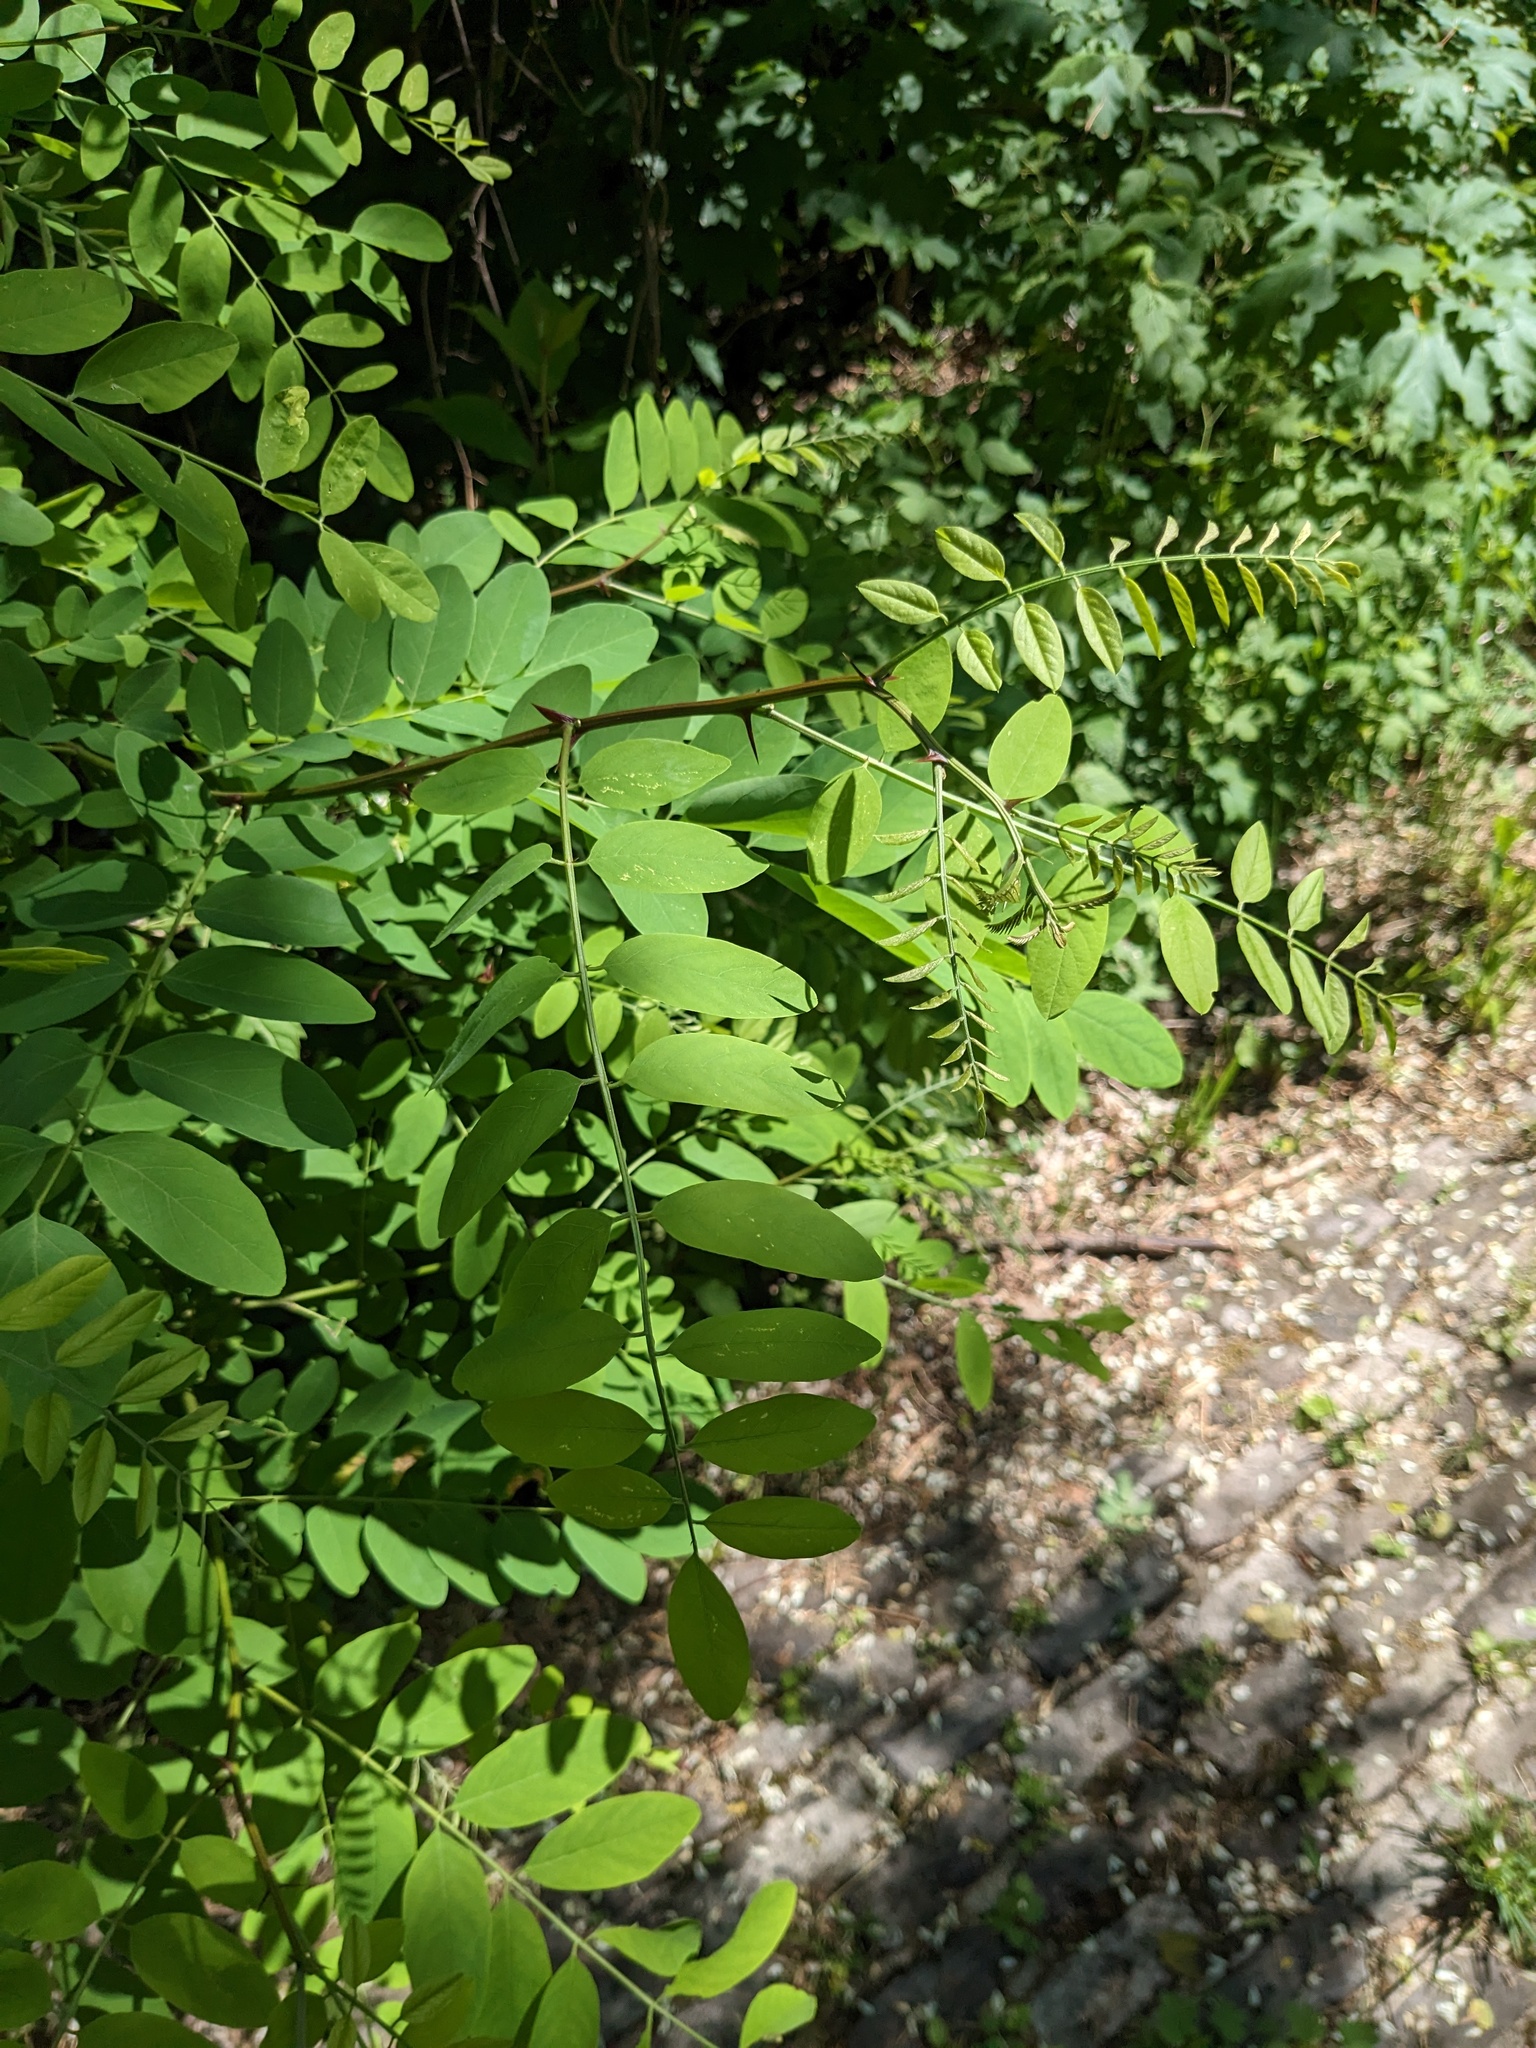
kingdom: Plantae
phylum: Tracheophyta
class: Magnoliopsida
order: Fabales
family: Fabaceae
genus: Robinia
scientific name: Robinia pseudoacacia
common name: Black locust
